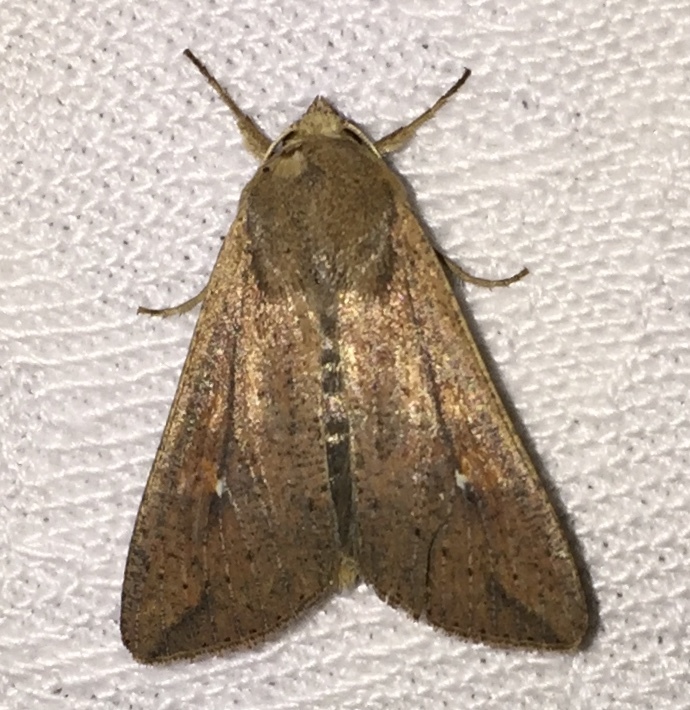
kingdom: Animalia
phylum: Arthropoda
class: Insecta
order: Lepidoptera
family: Noctuidae
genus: Mythimna
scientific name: Mythimna unipuncta
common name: White-speck
